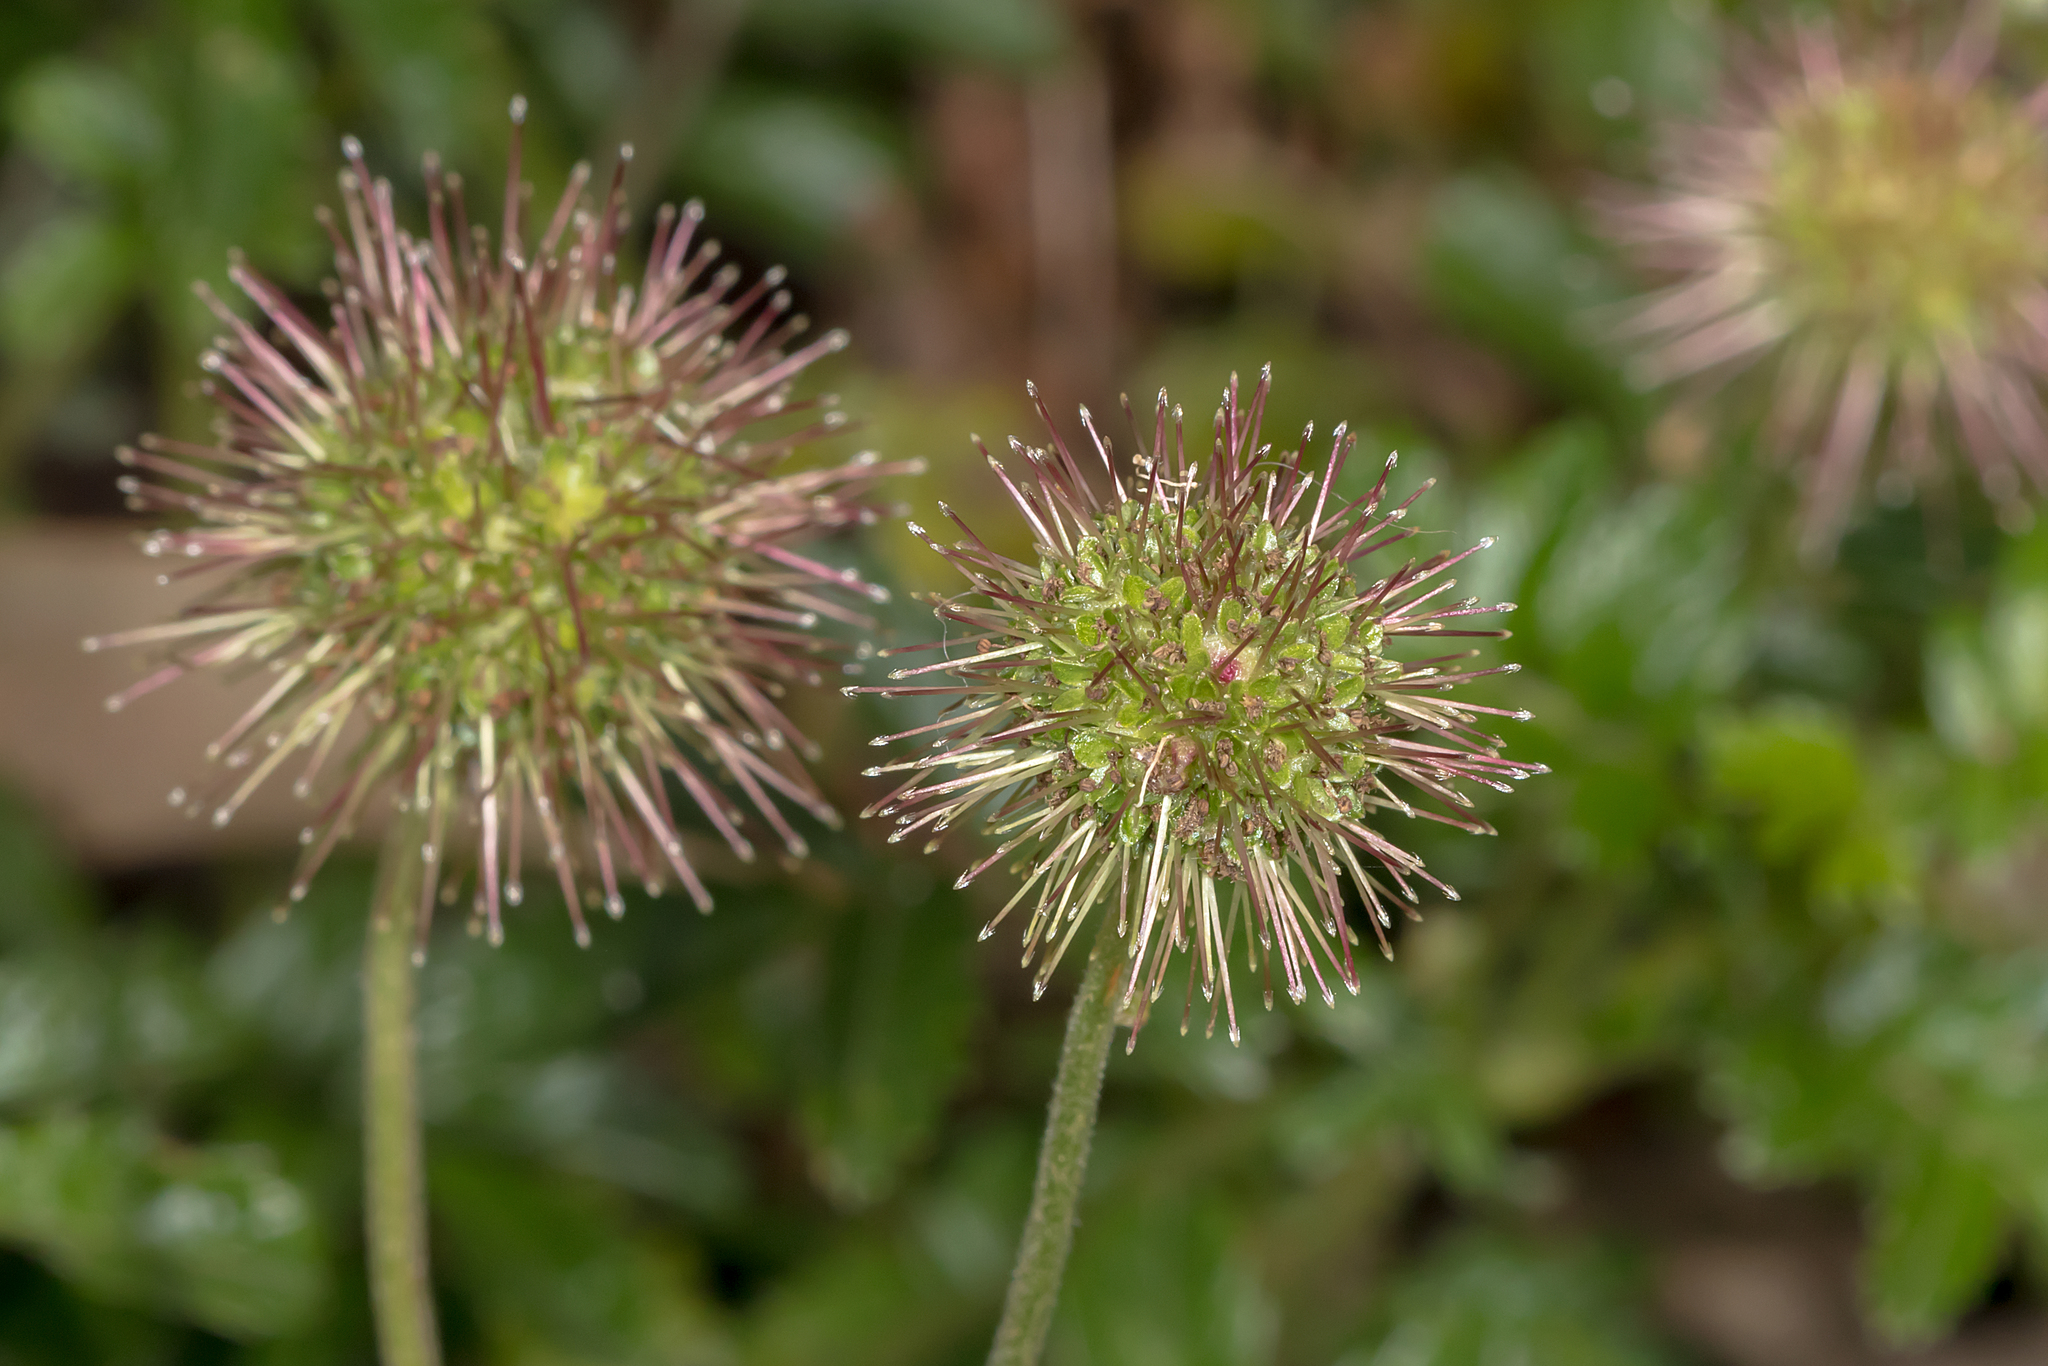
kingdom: Plantae
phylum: Tracheophyta
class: Magnoliopsida
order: Rosales
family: Rosaceae
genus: Acaena
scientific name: Acaena novae-zelandiae
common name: Pirri-pirri-bur
